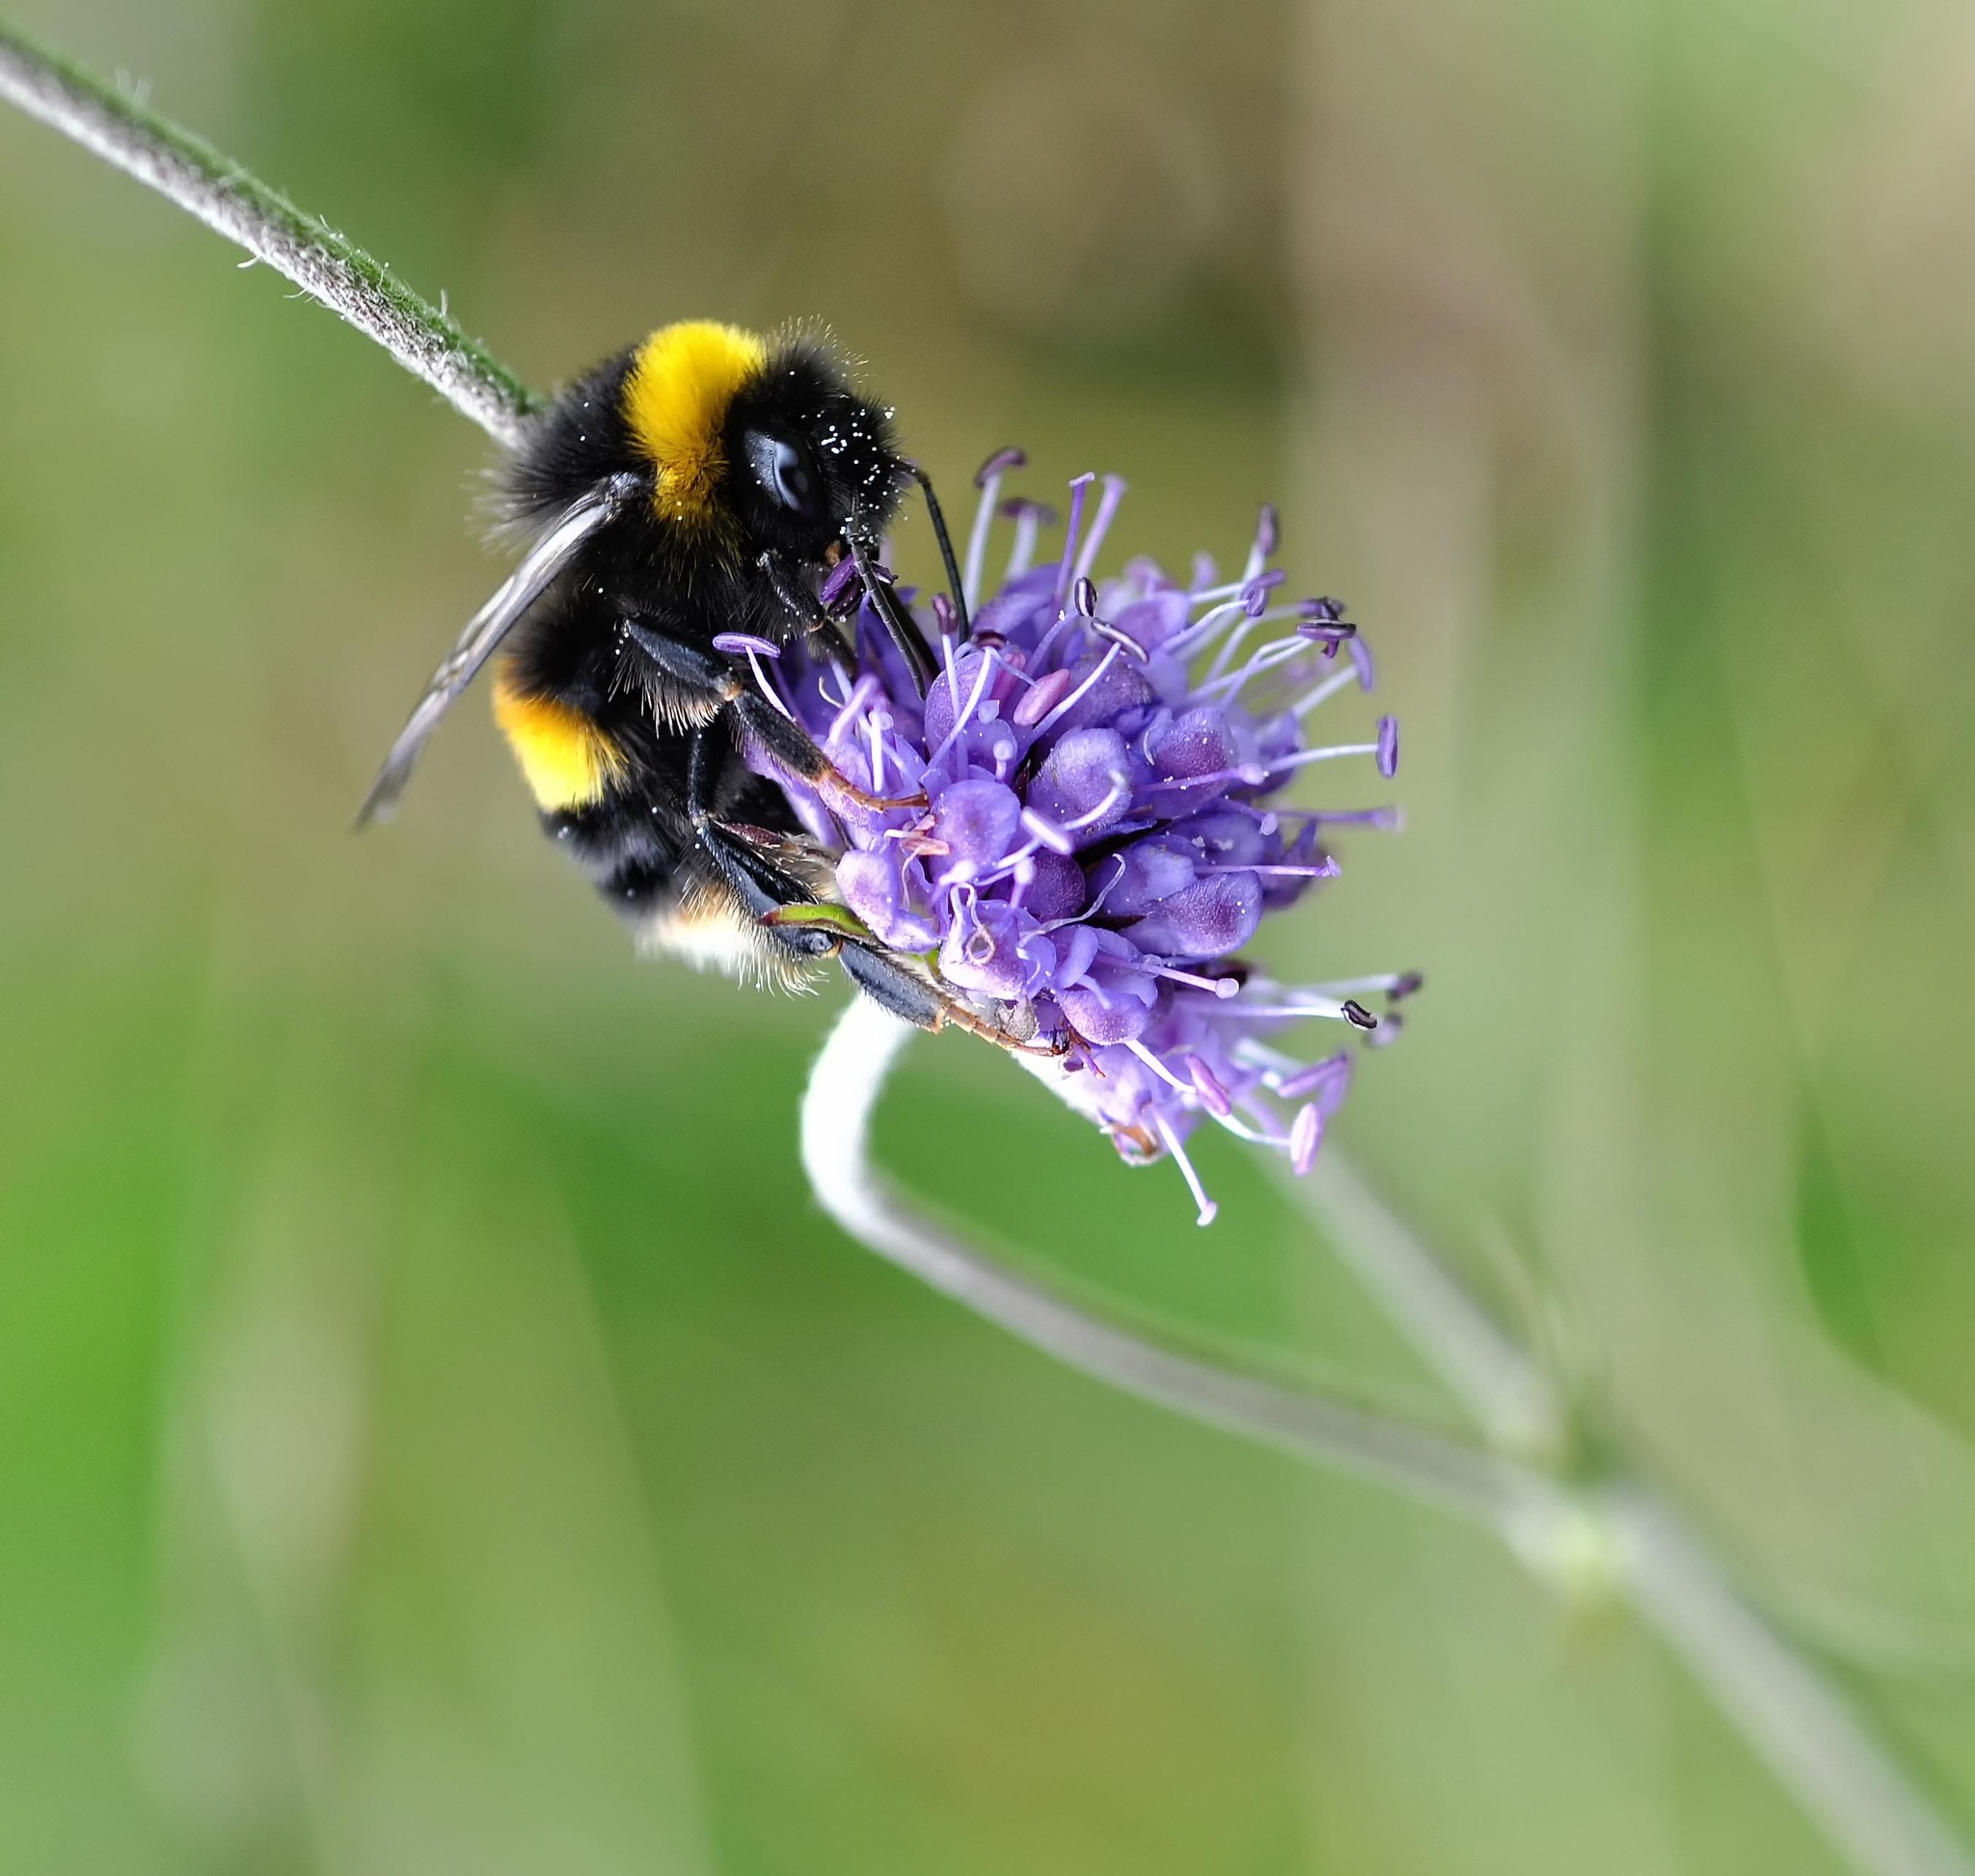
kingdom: Animalia
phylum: Arthropoda
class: Insecta
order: Hymenoptera
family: Apidae
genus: Bombus
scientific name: Bombus terrestris
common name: Buff-tailed bumblebee
